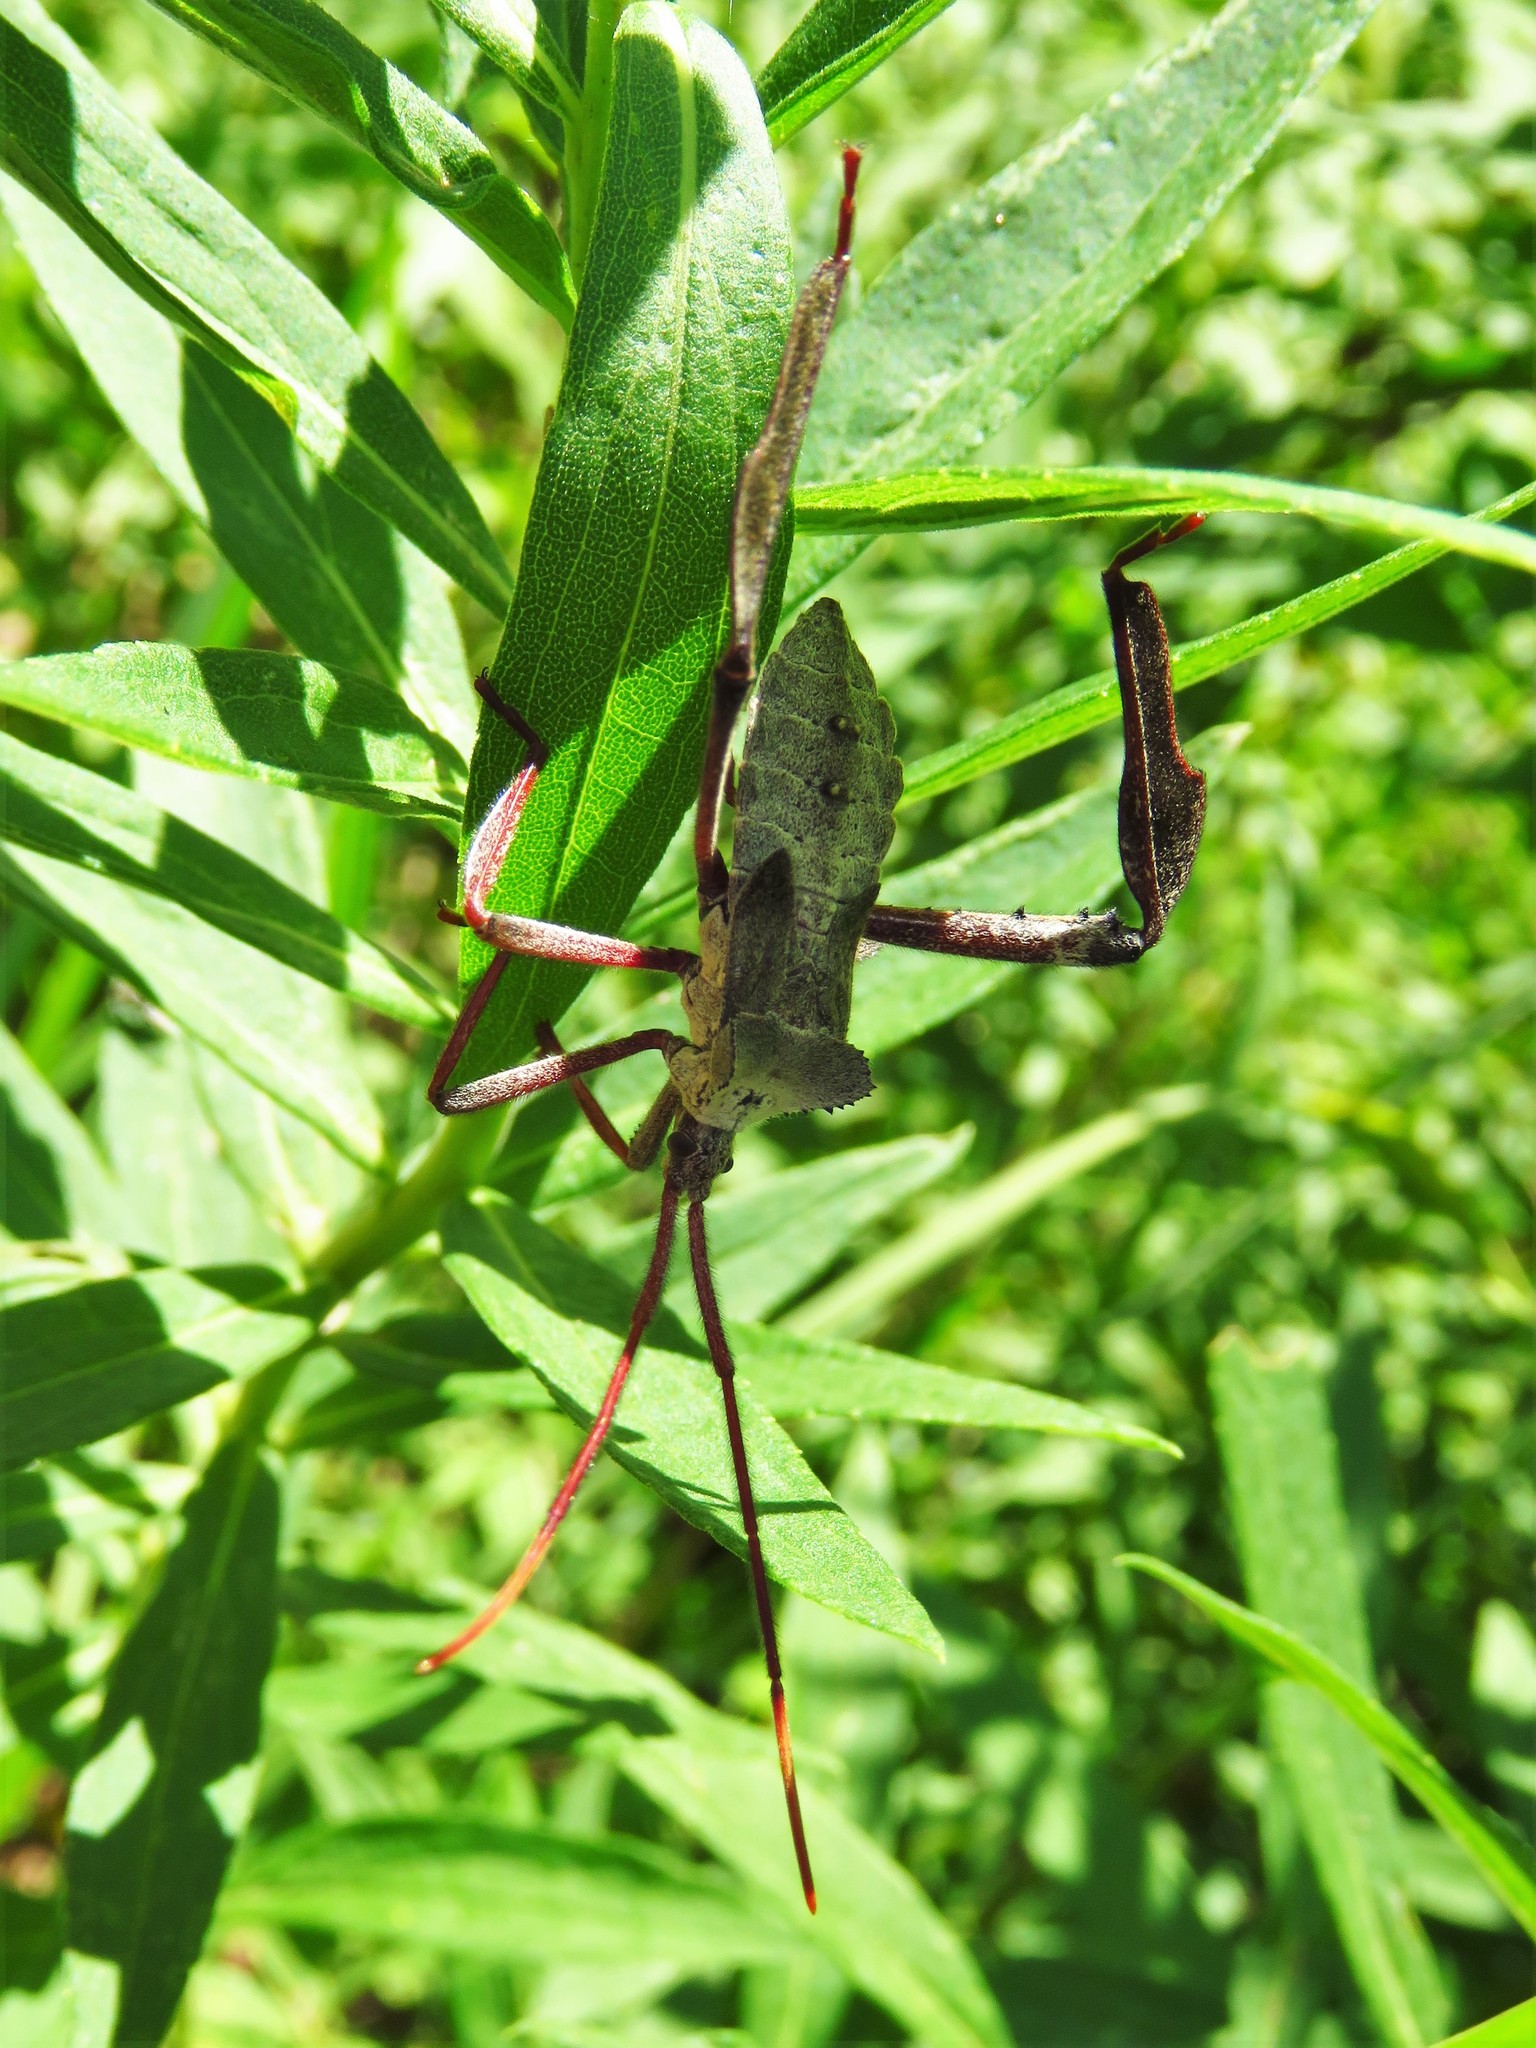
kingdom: Animalia
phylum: Arthropoda
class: Insecta
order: Hemiptera
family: Coreidae
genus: Acanthocephala
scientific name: Acanthocephala declivis
